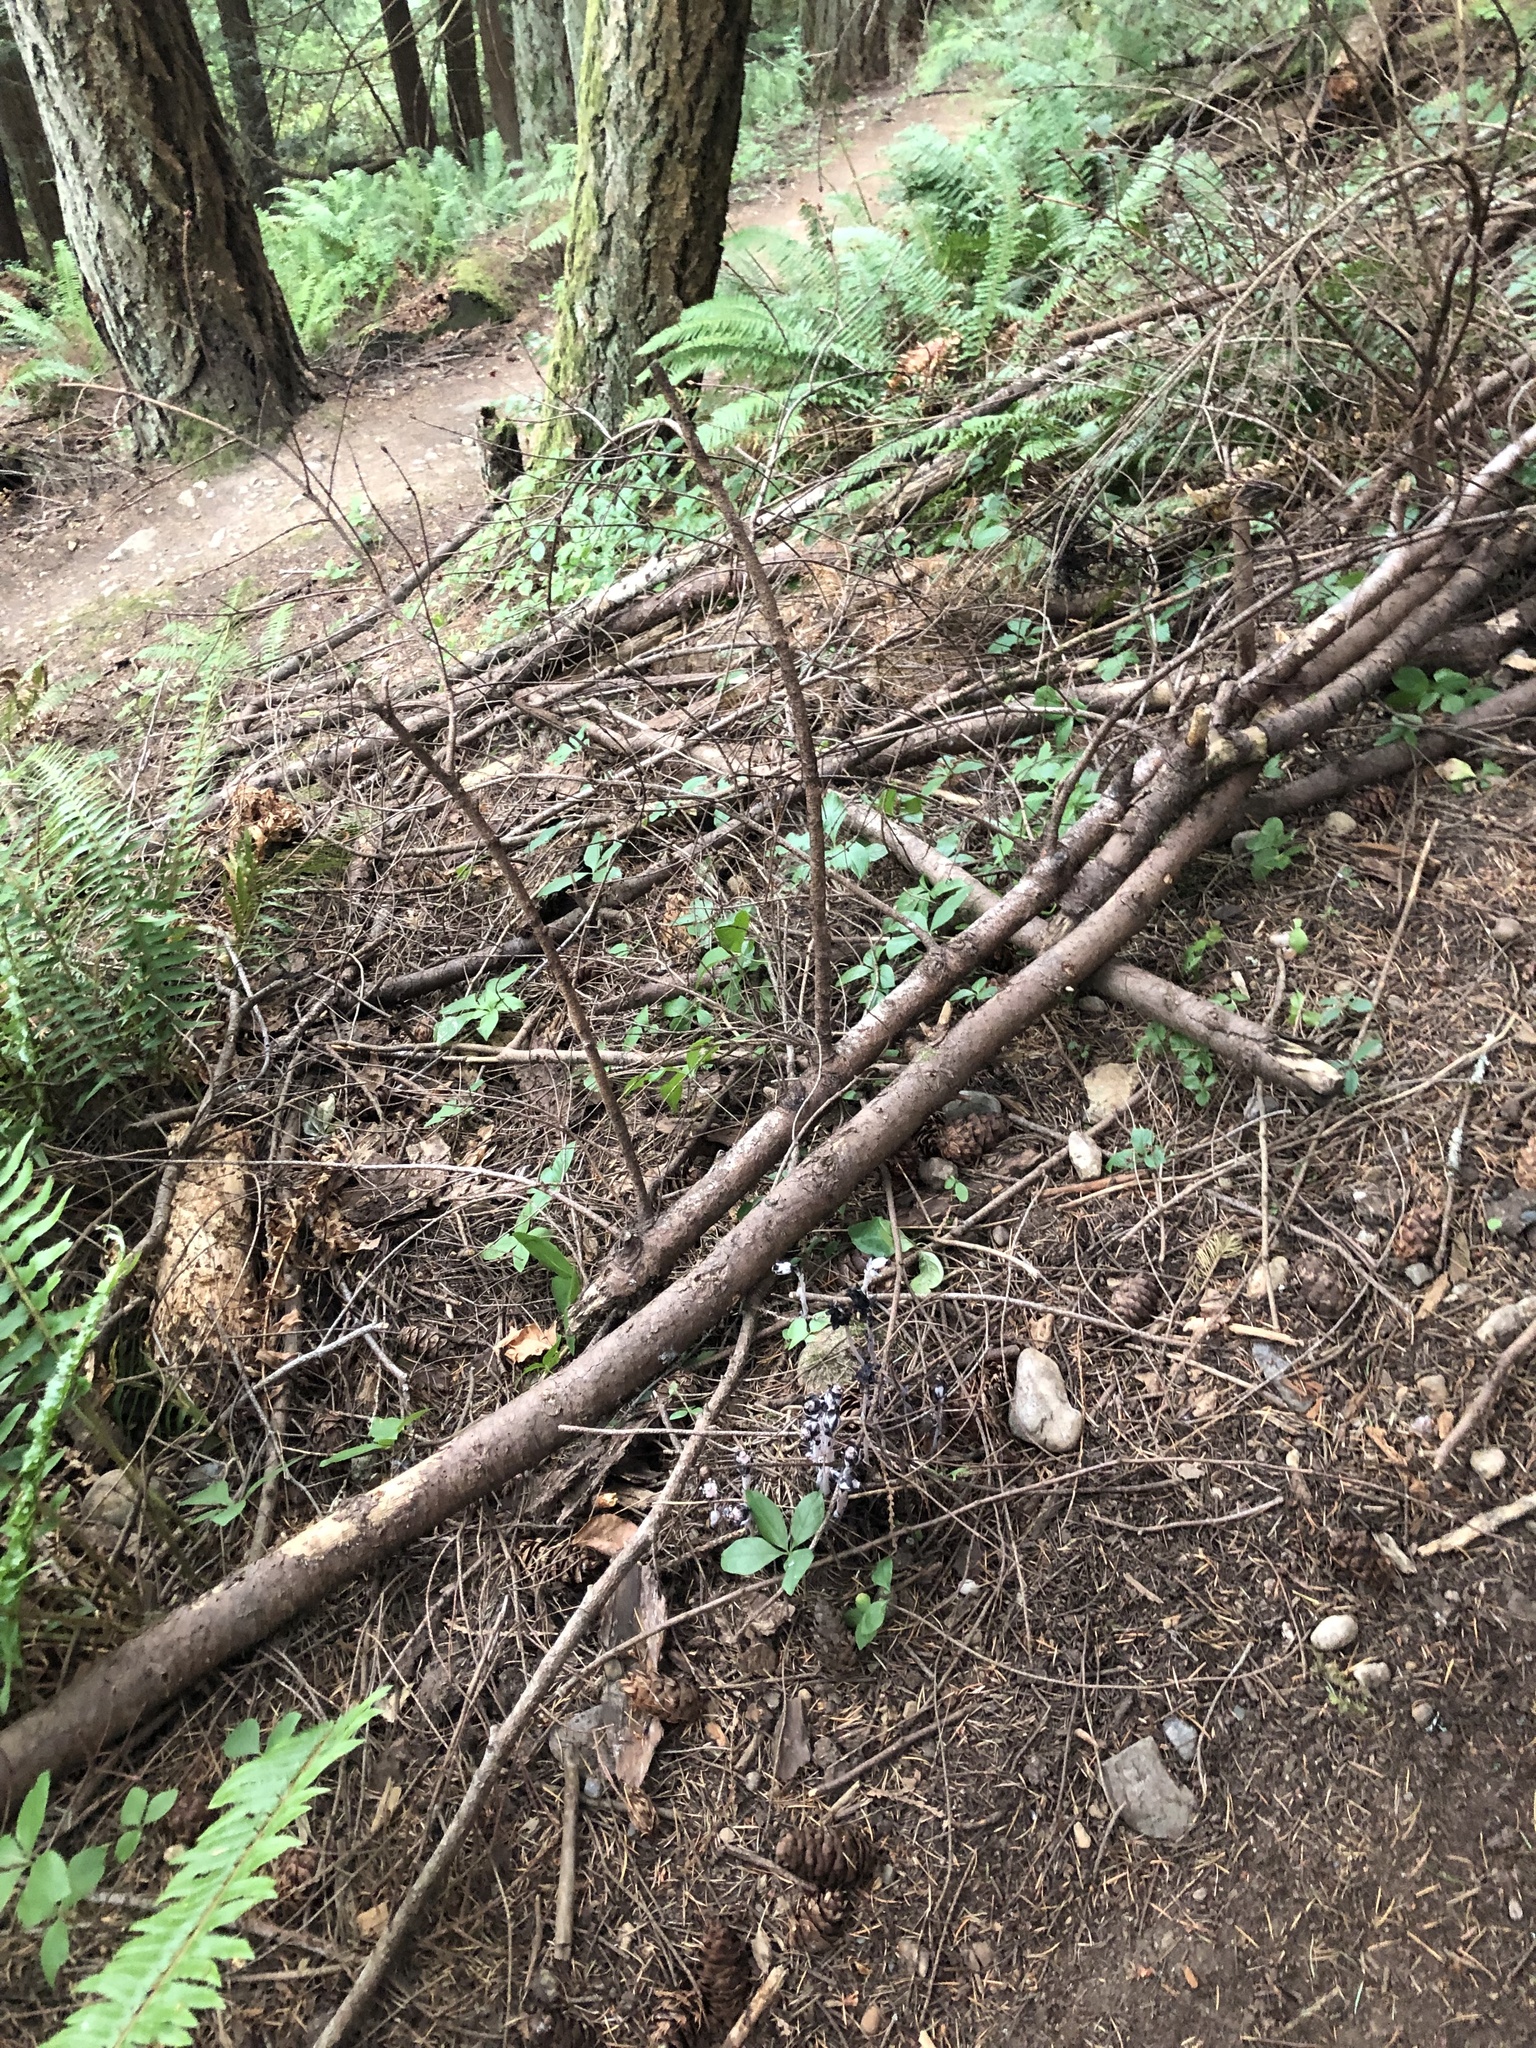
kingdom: Plantae
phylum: Tracheophyta
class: Magnoliopsida
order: Ericales
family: Ericaceae
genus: Monotropa
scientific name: Monotropa uniflora
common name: Convulsion root
